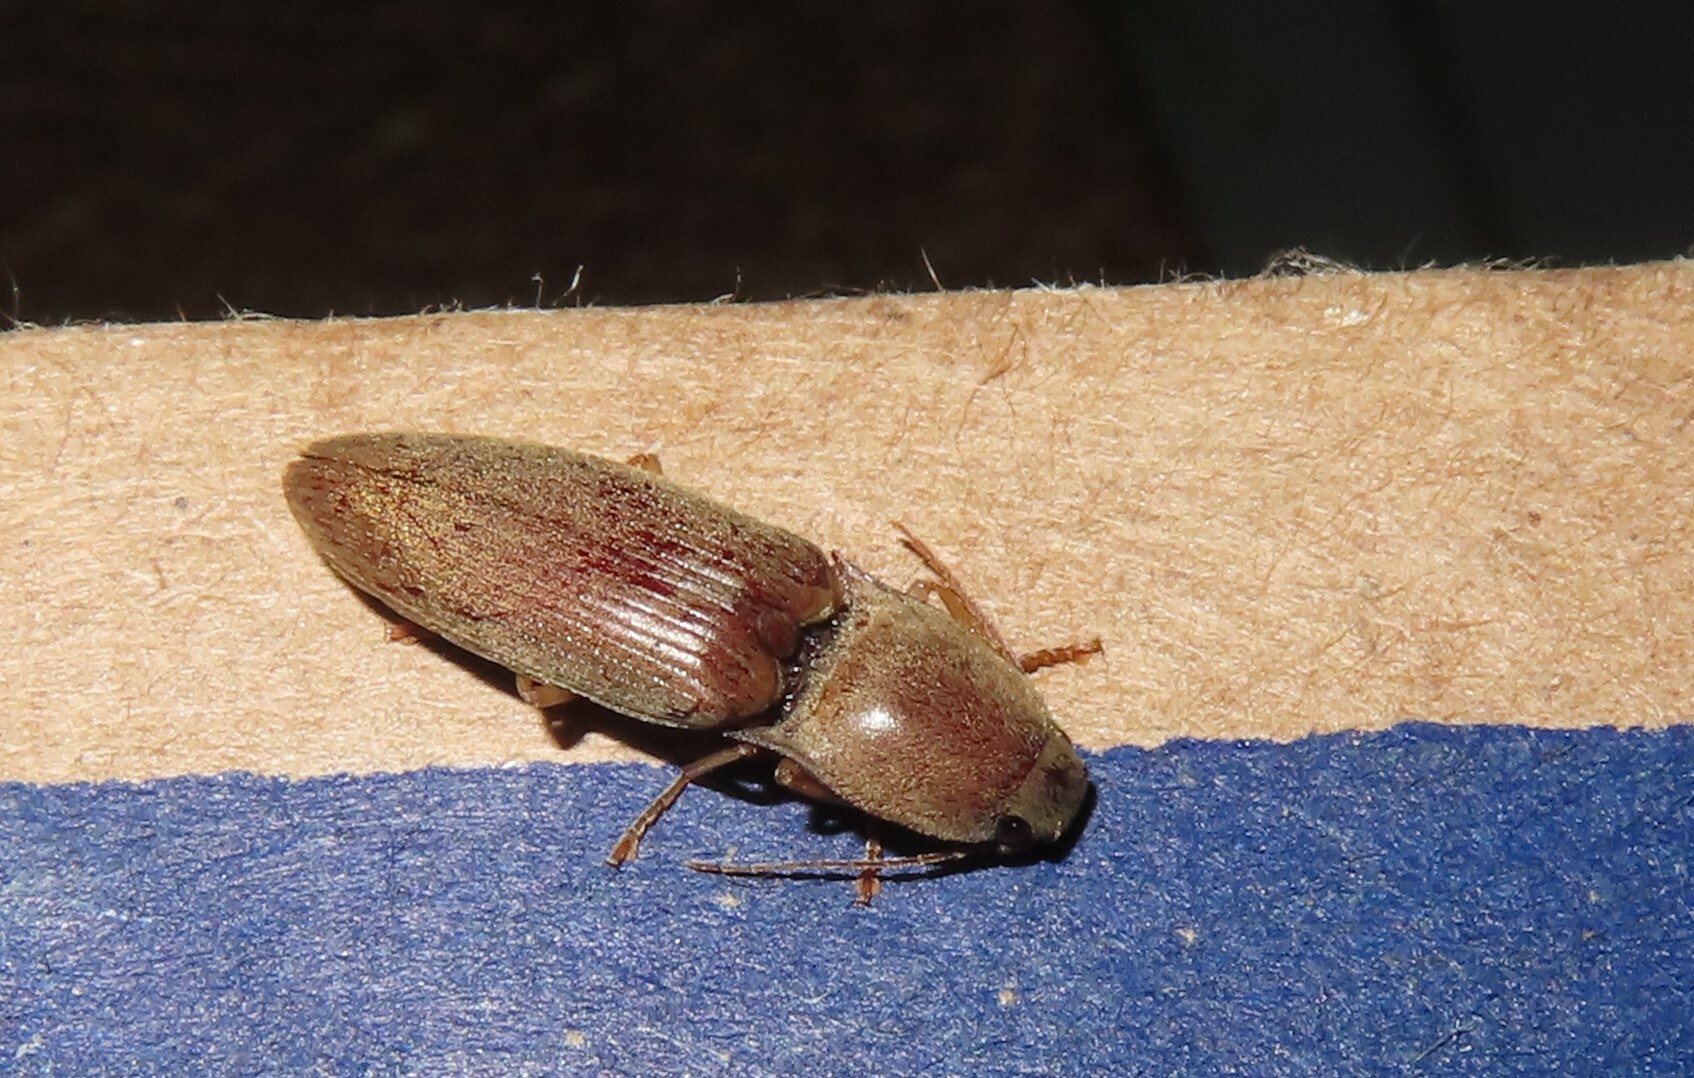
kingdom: Animalia
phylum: Arthropoda
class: Insecta
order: Coleoptera
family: Elateridae
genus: Monocrepidius
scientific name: Monocrepidius lividus
